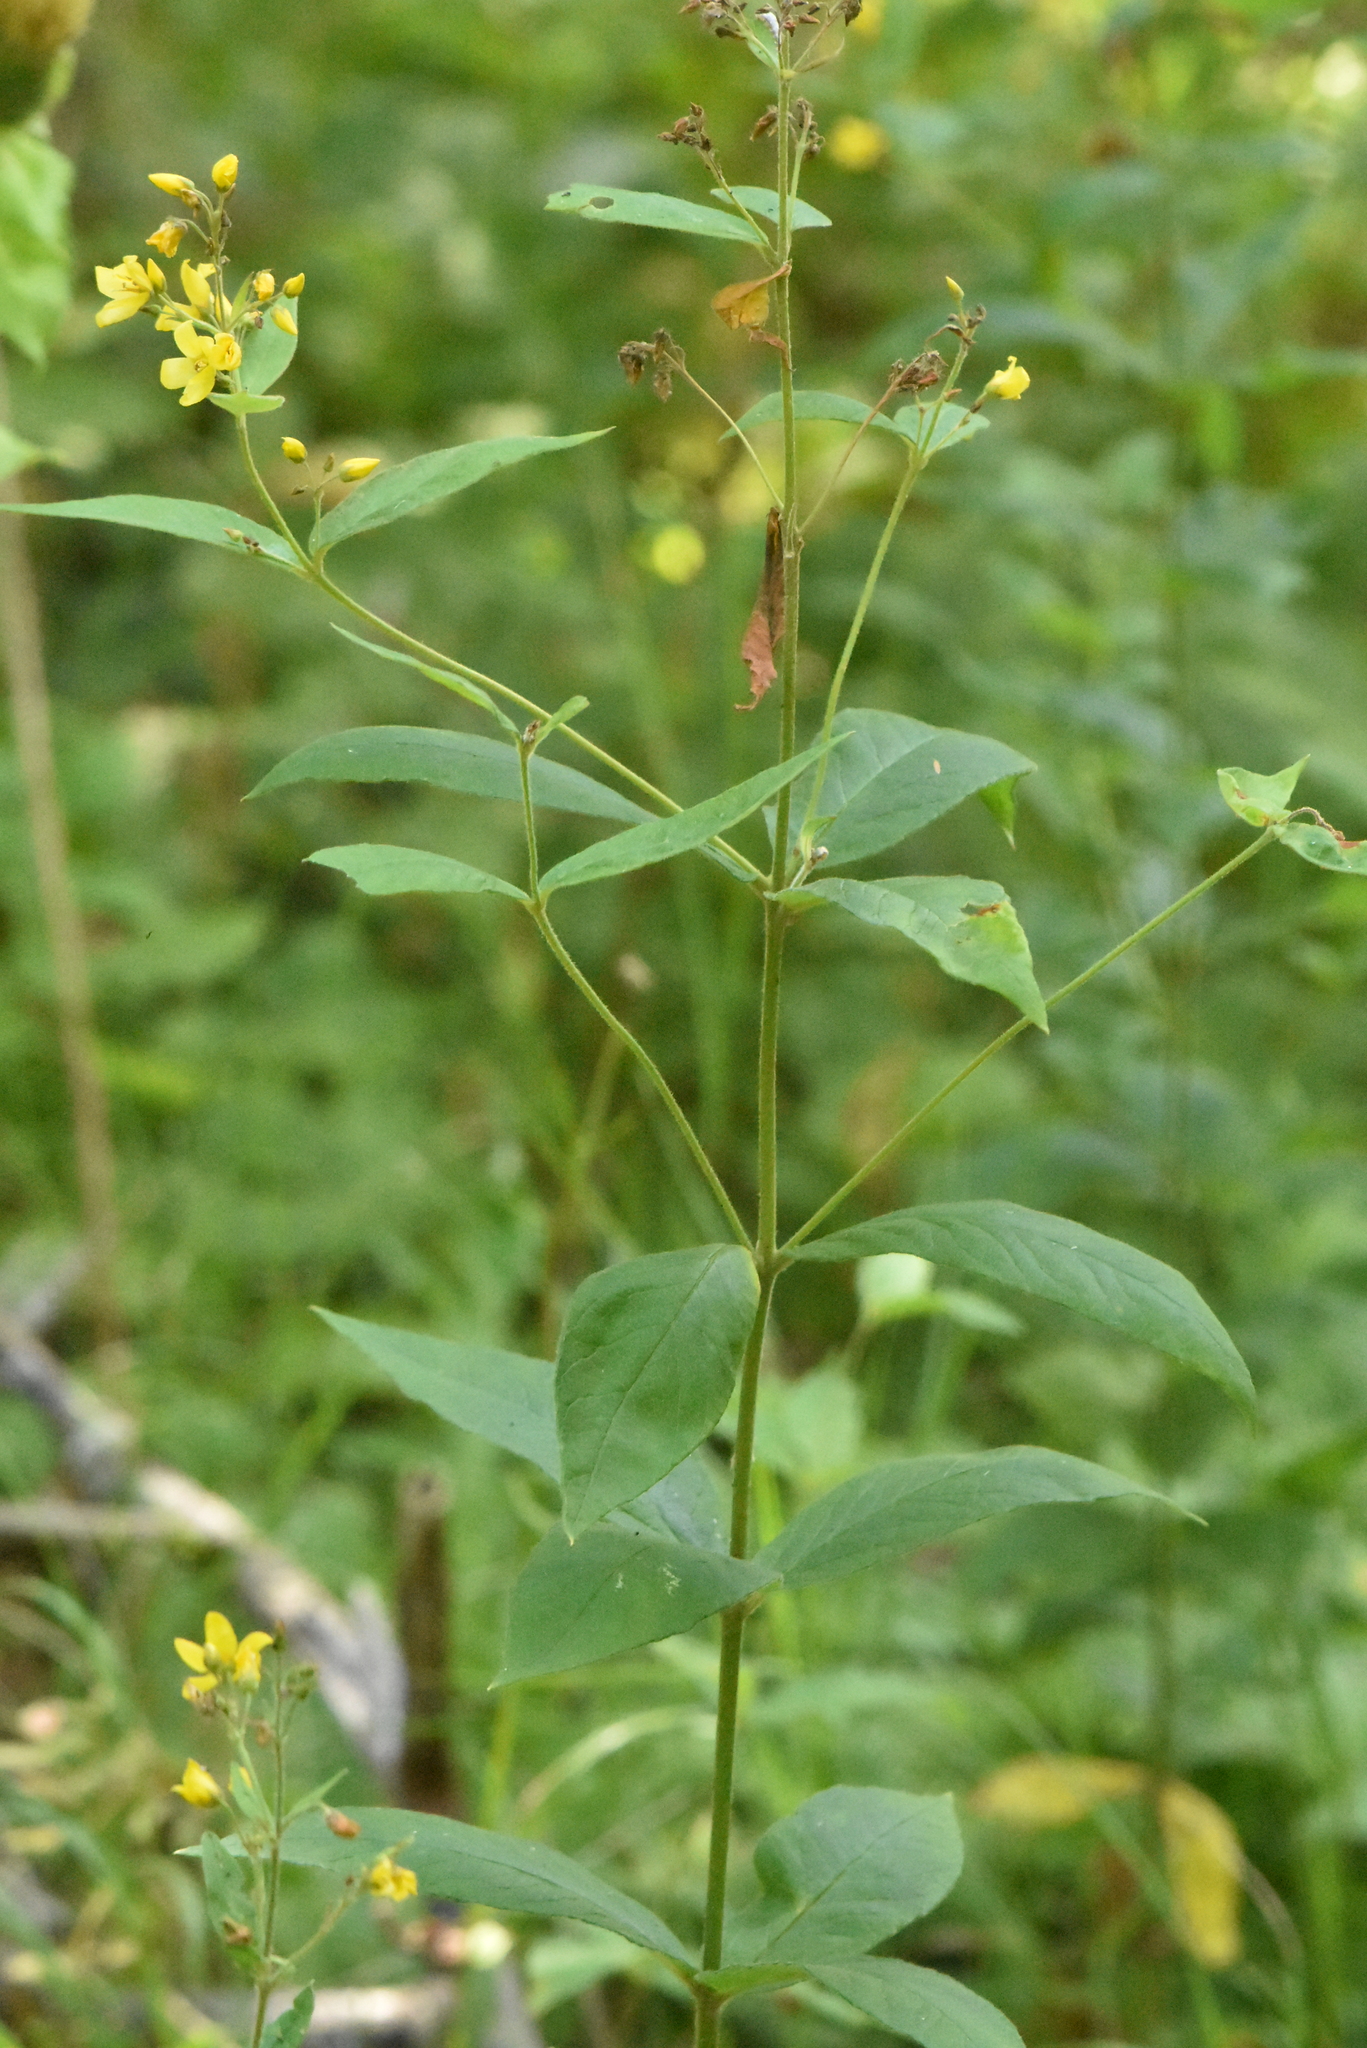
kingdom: Plantae
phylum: Tracheophyta
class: Magnoliopsida
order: Ericales
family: Primulaceae
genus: Lysimachia
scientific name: Lysimachia vulgaris
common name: Yellow loosestrife
